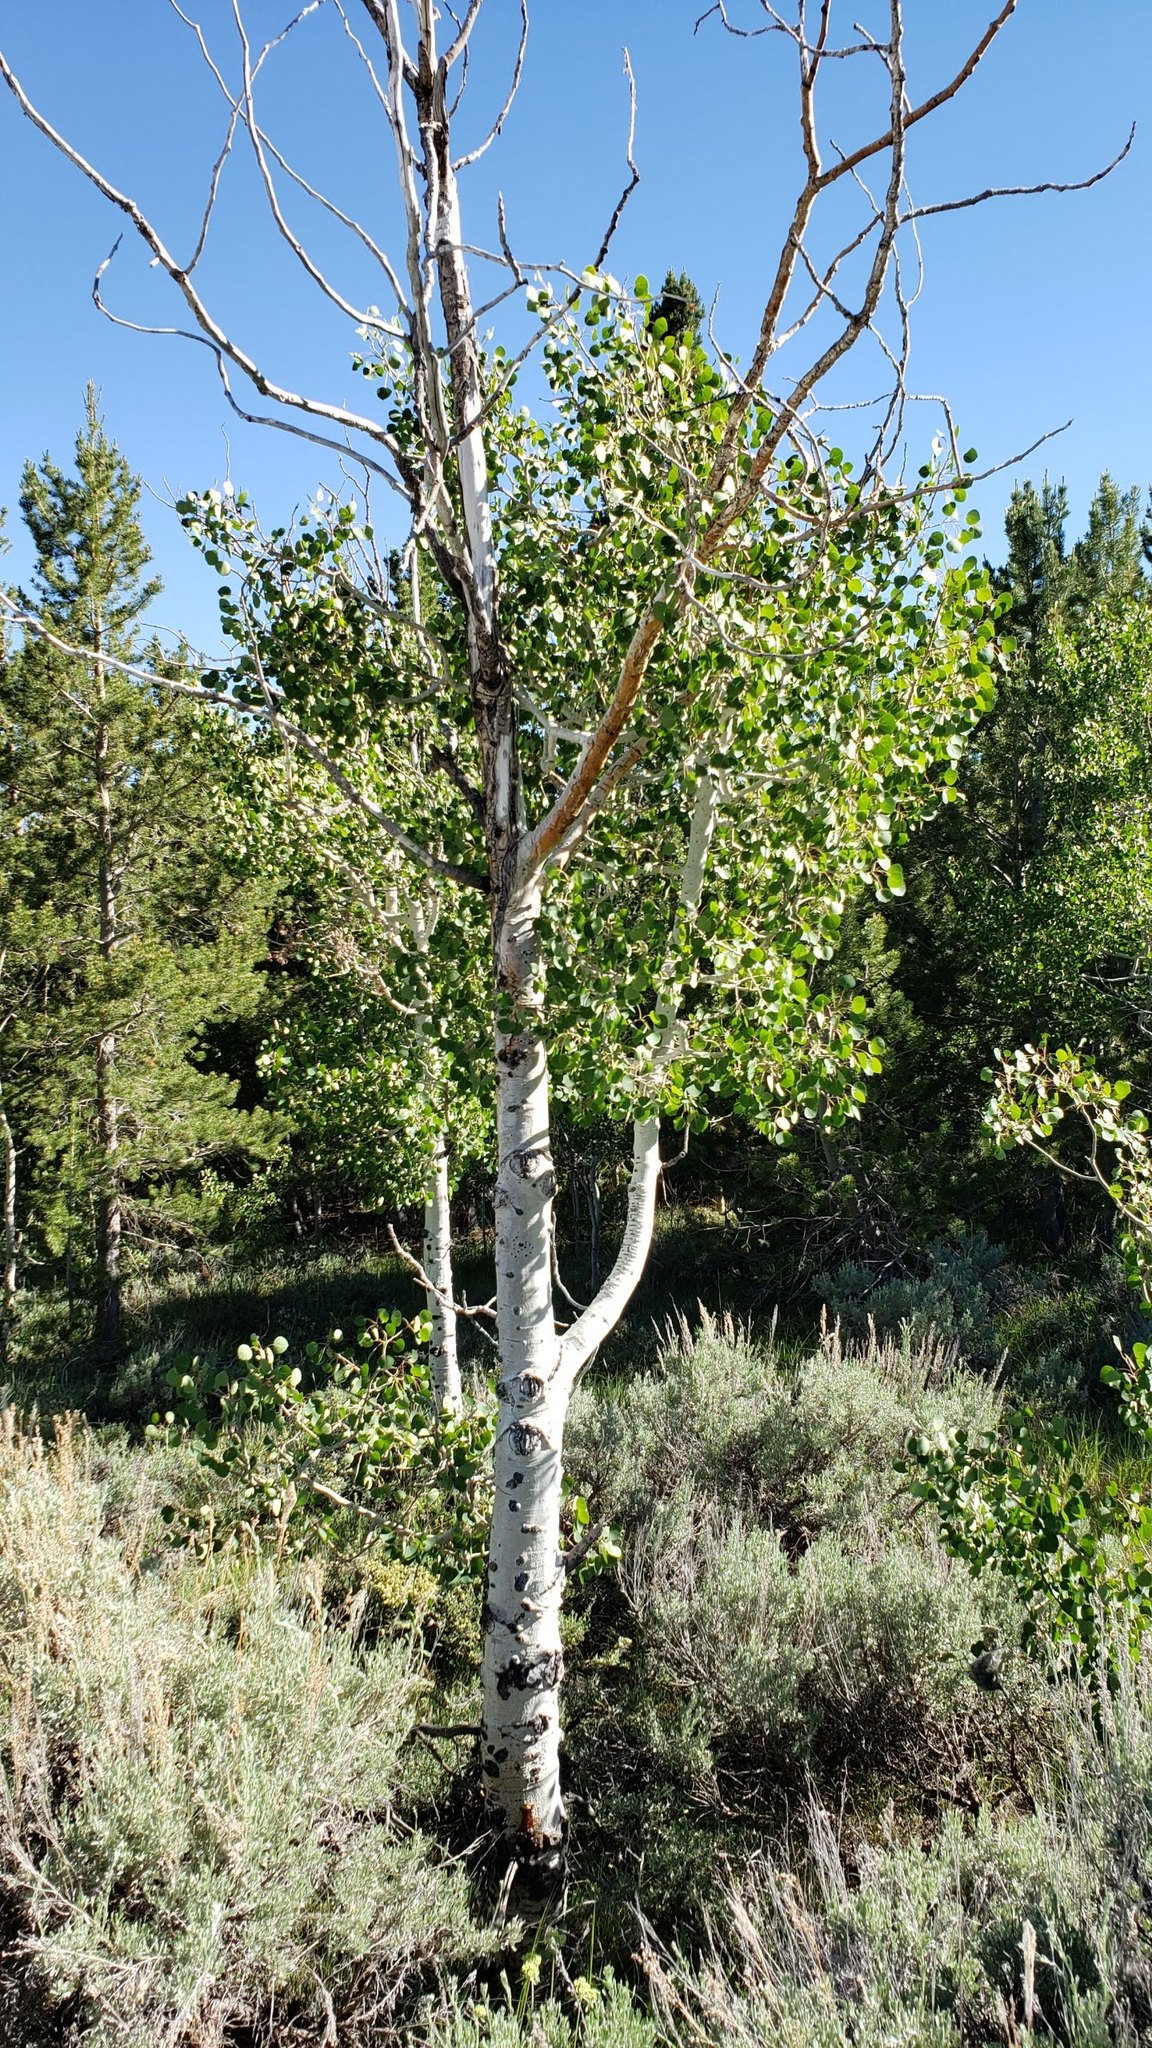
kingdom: Plantae
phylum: Tracheophyta
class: Magnoliopsida
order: Malpighiales
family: Salicaceae
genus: Populus
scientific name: Populus tremuloides
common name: Quaking aspen
